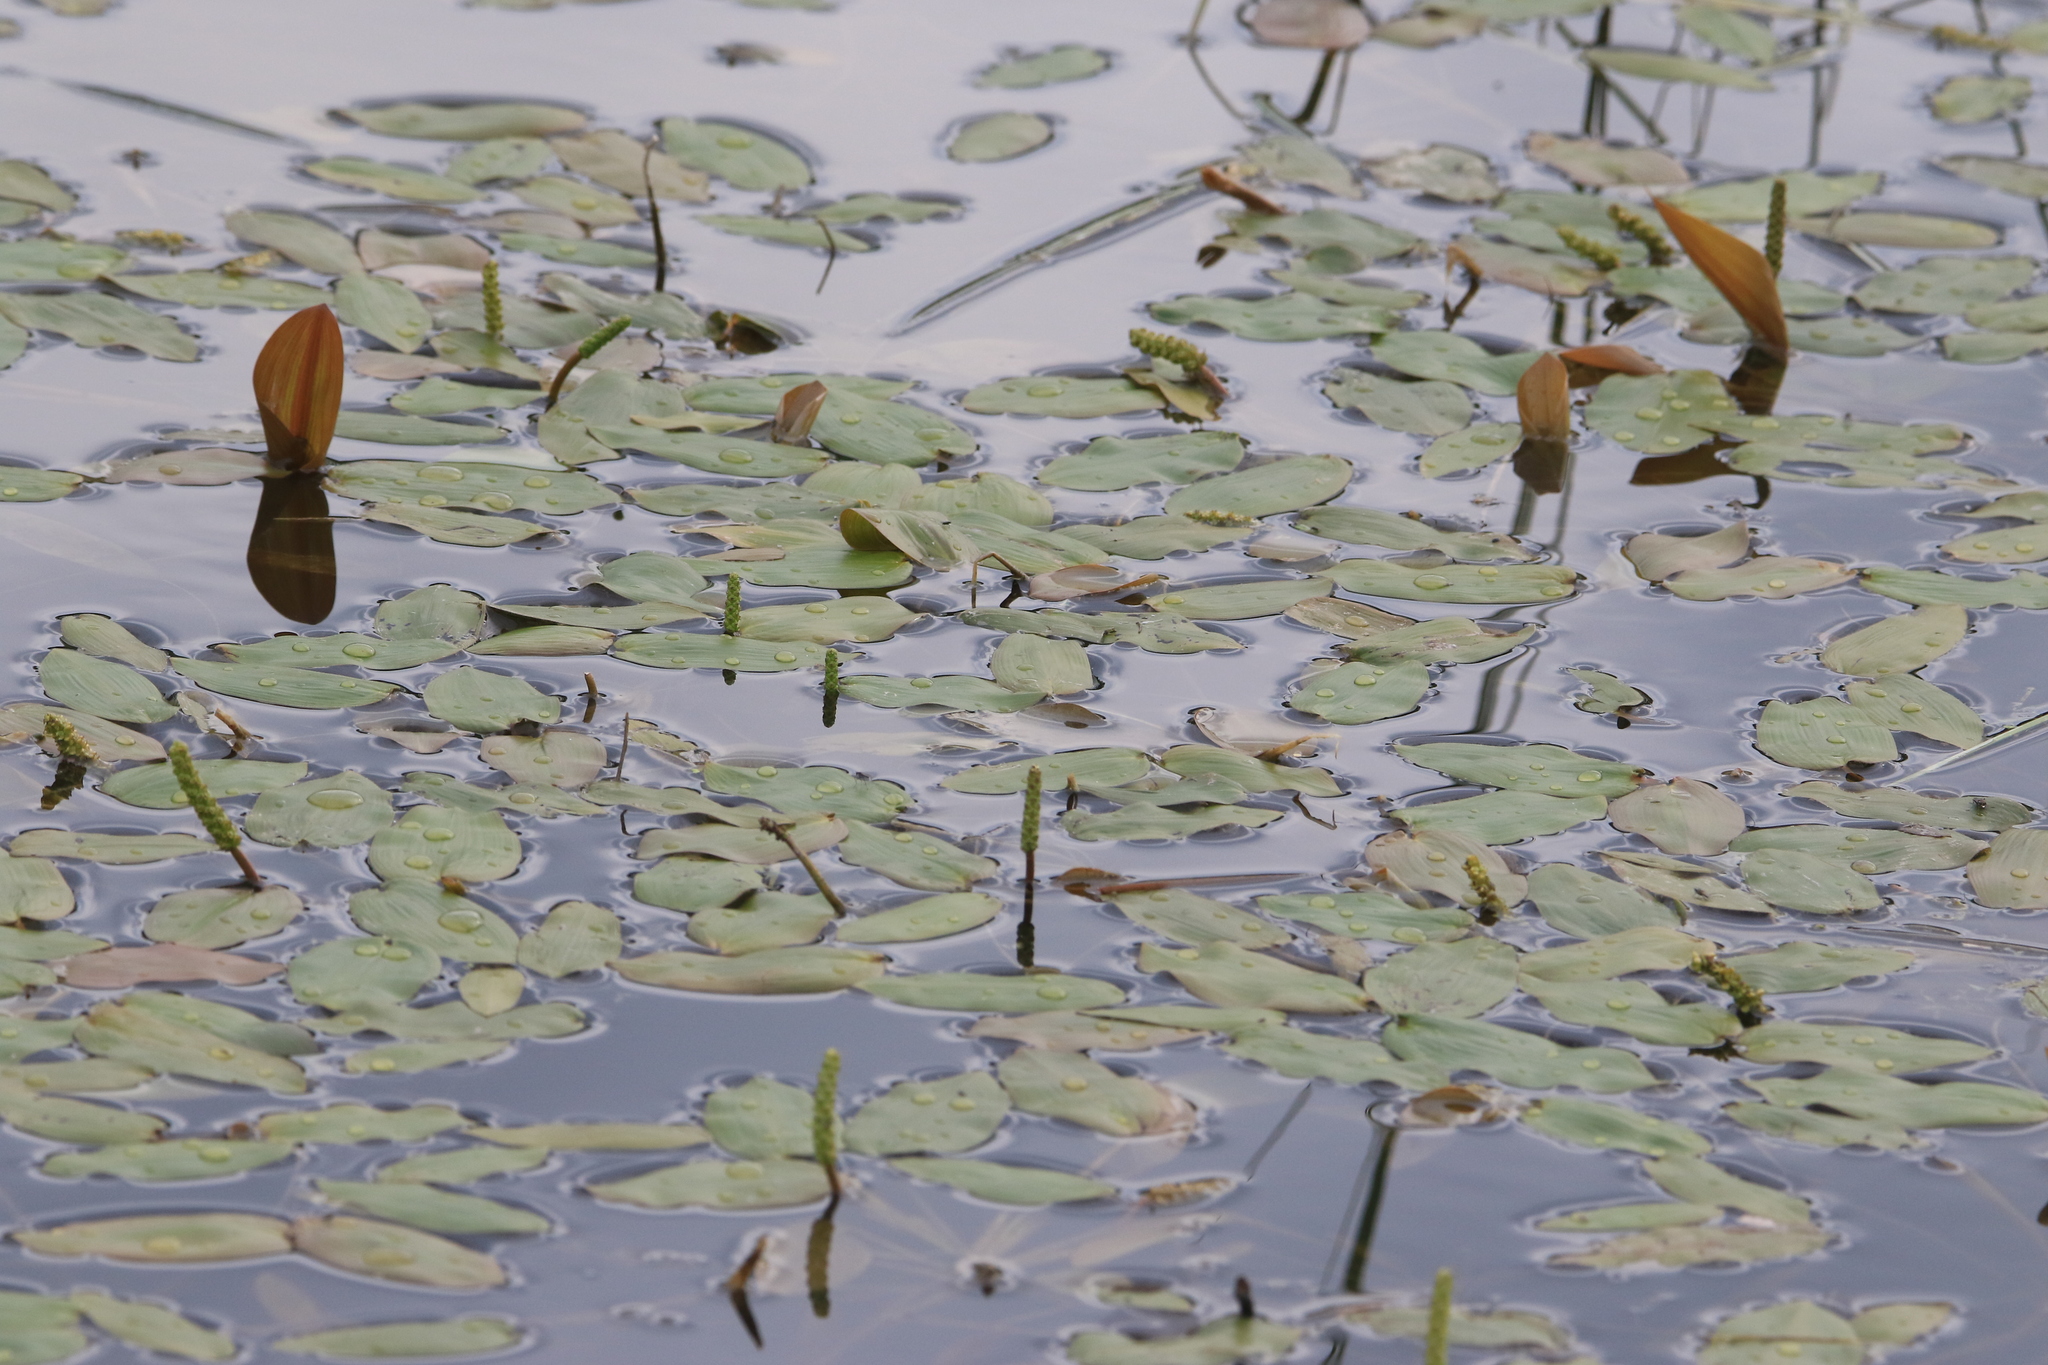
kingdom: Plantae
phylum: Tracheophyta
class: Liliopsida
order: Alismatales
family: Potamogetonaceae
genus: Potamogeton
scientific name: Potamogeton natans
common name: Broad-leaved pondweed
